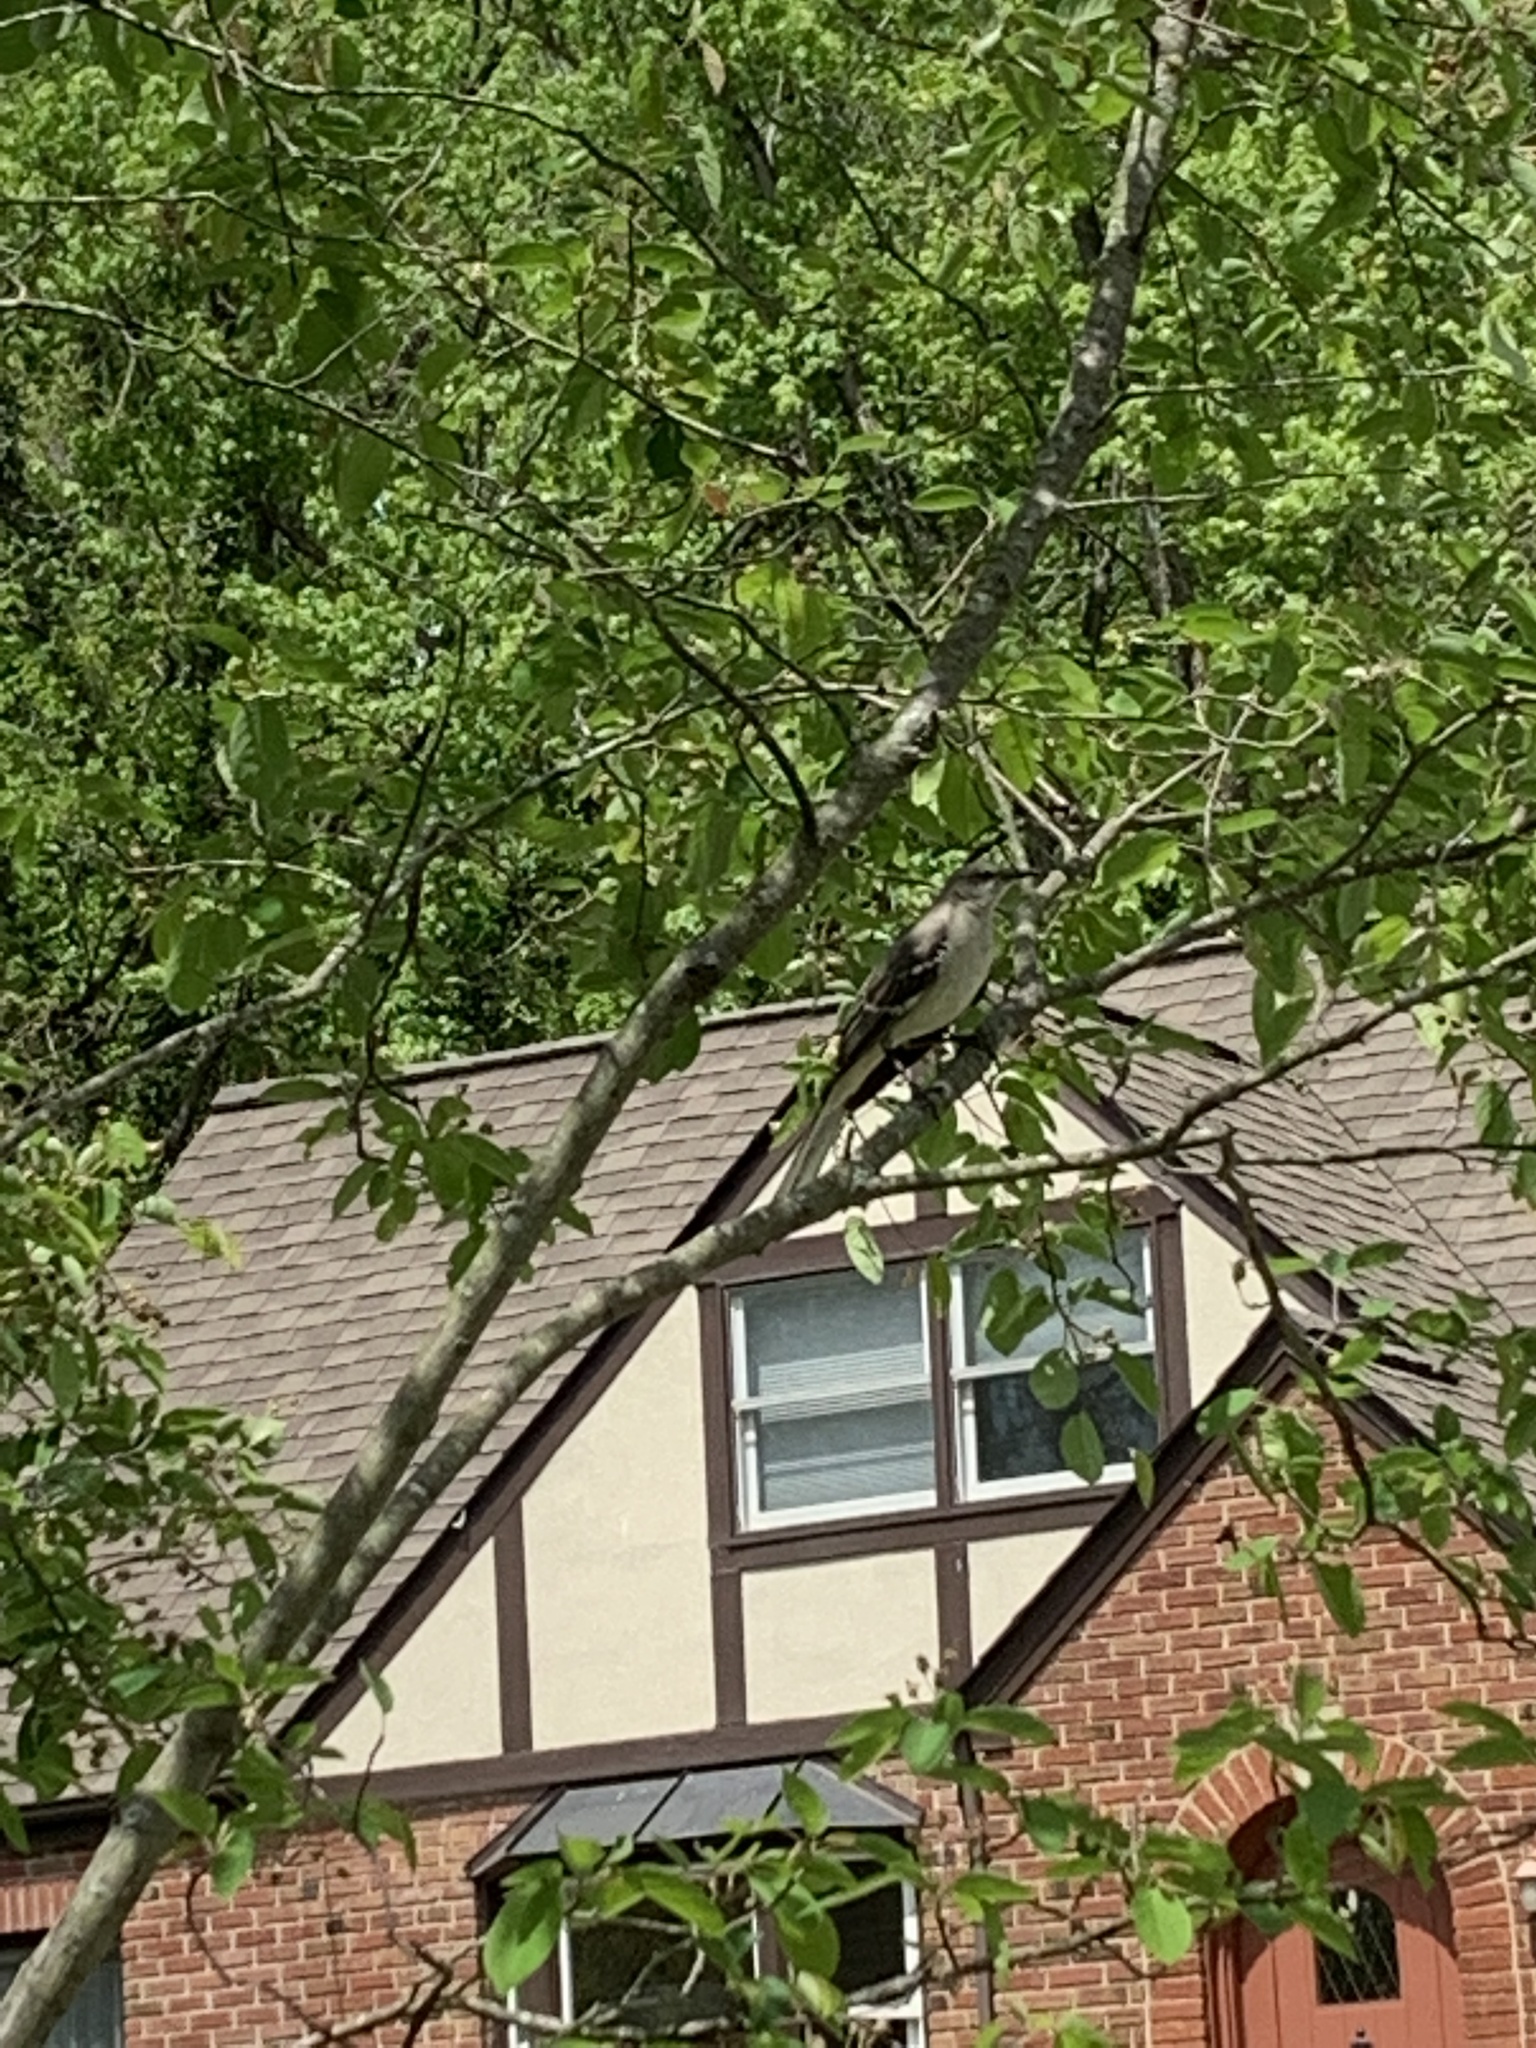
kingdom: Animalia
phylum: Chordata
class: Aves
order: Passeriformes
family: Mimidae
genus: Mimus
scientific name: Mimus polyglottos
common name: Northern mockingbird
